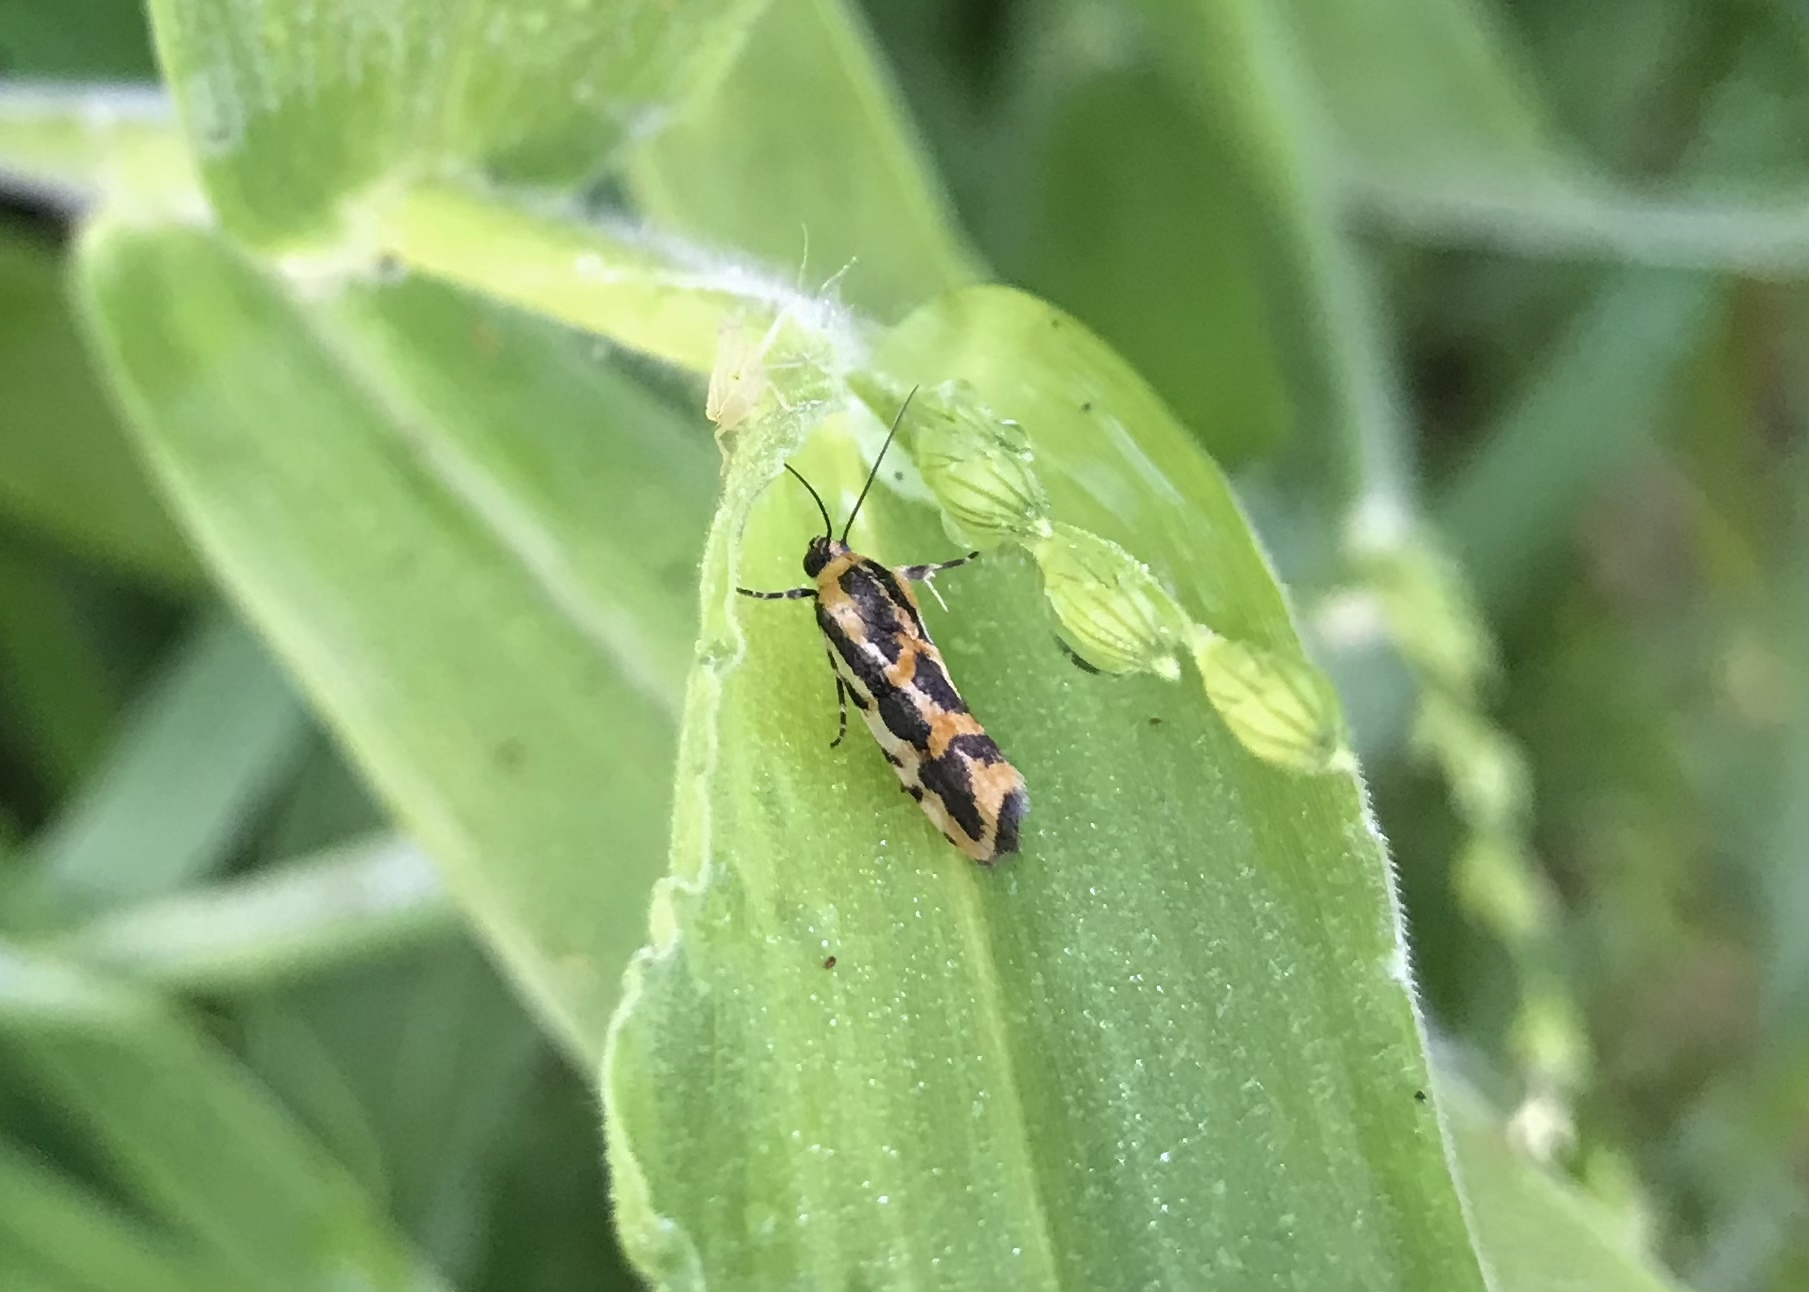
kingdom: Animalia
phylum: Arthropoda
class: Insecta
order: Lepidoptera
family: Noctuidae
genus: Acontia
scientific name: Acontia leo
